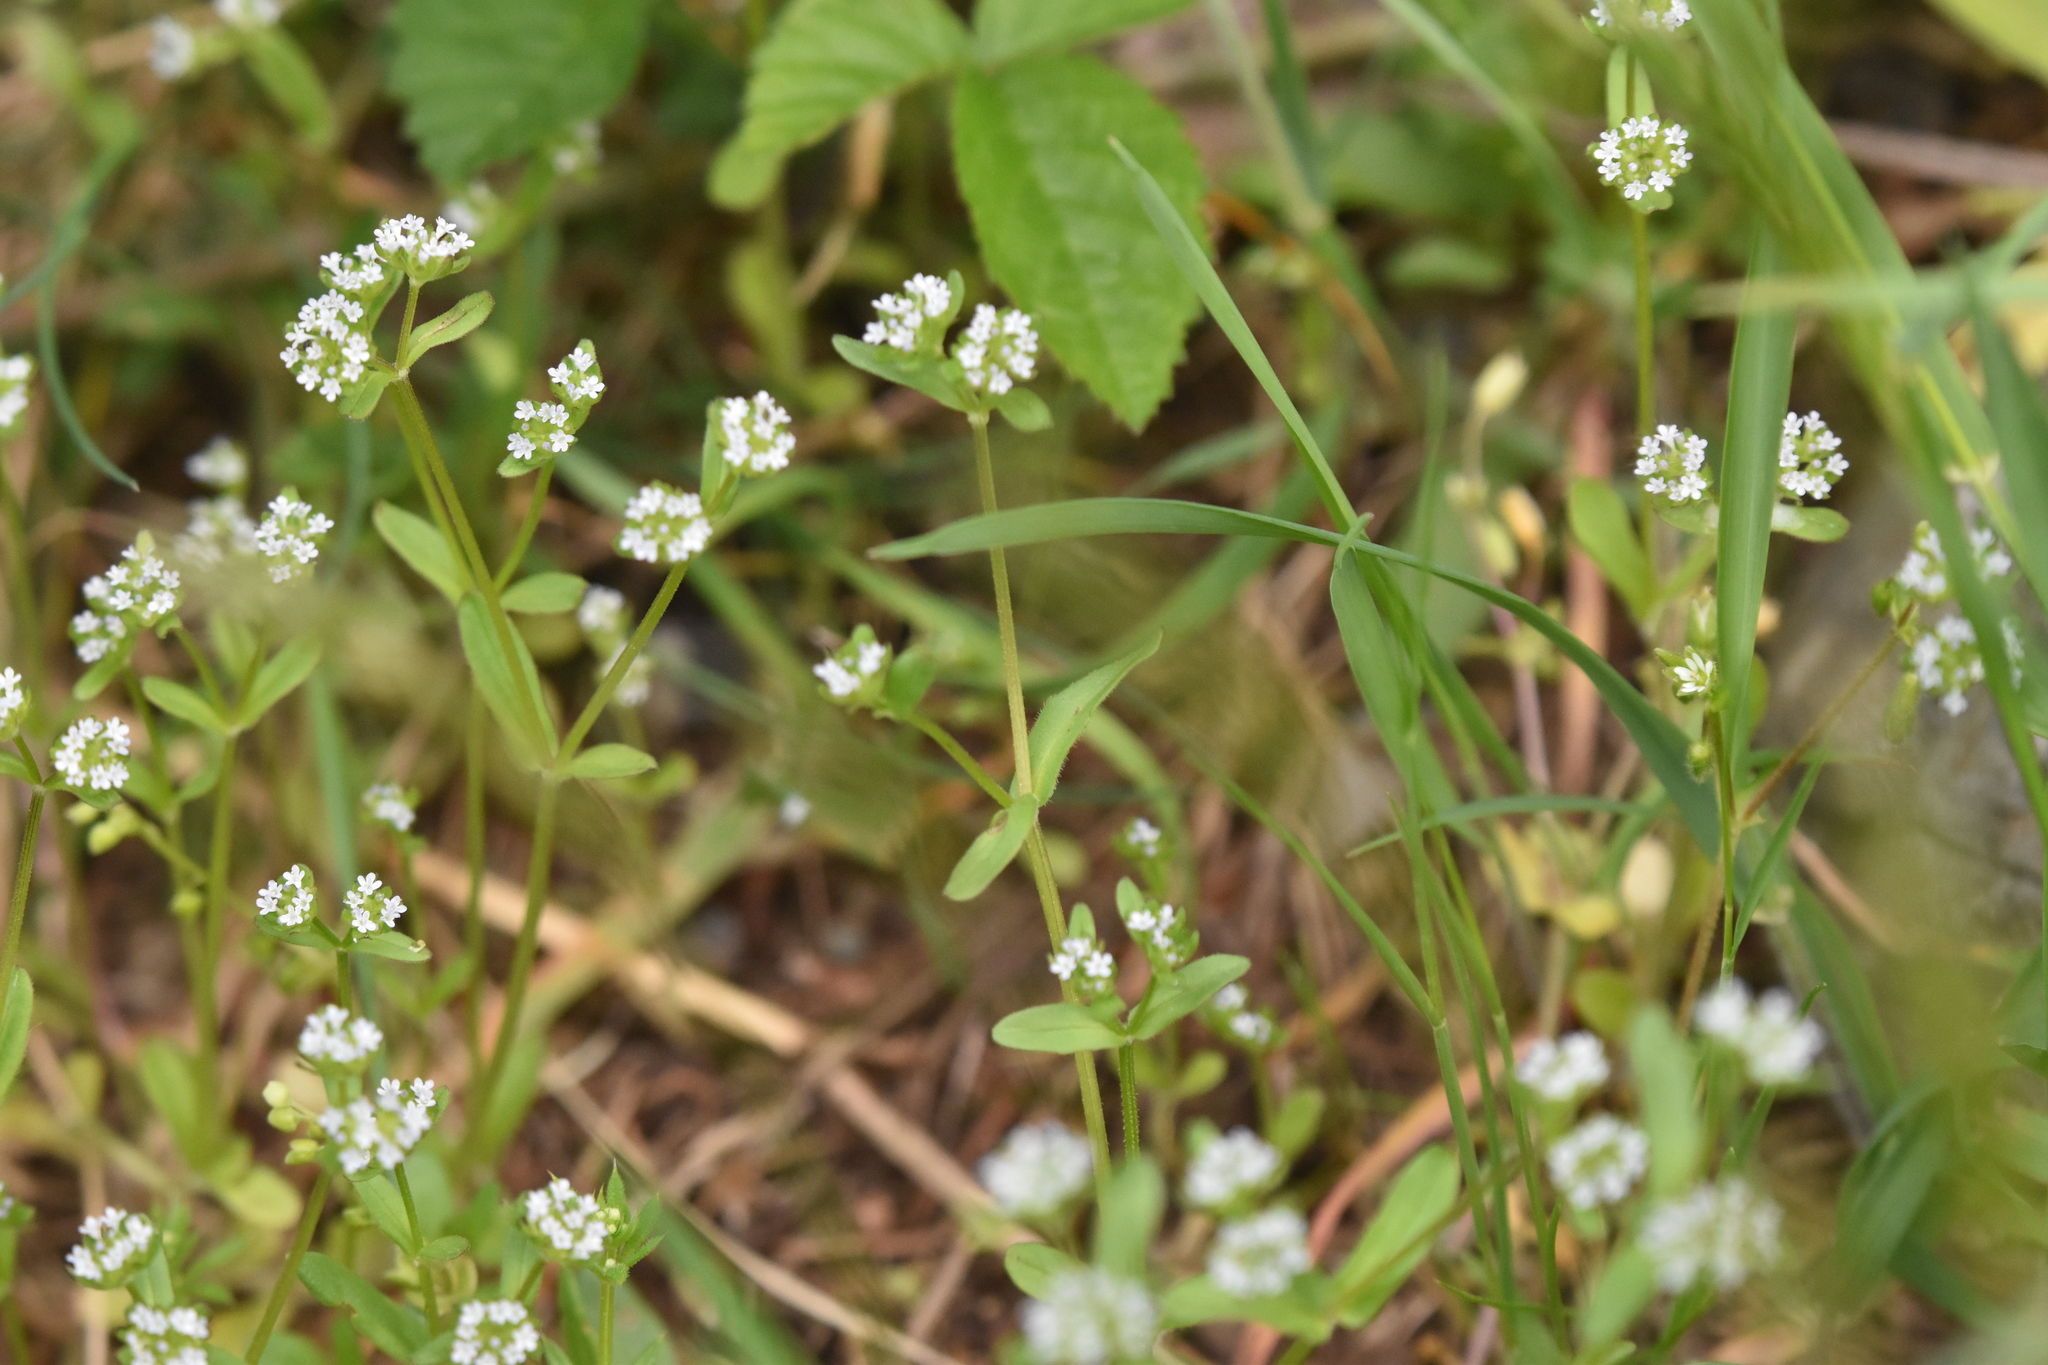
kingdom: Plantae
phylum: Tracheophyta
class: Magnoliopsida
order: Dipsacales
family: Caprifoliaceae
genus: Valerianella
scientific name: Valerianella locusta
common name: Common cornsalad
